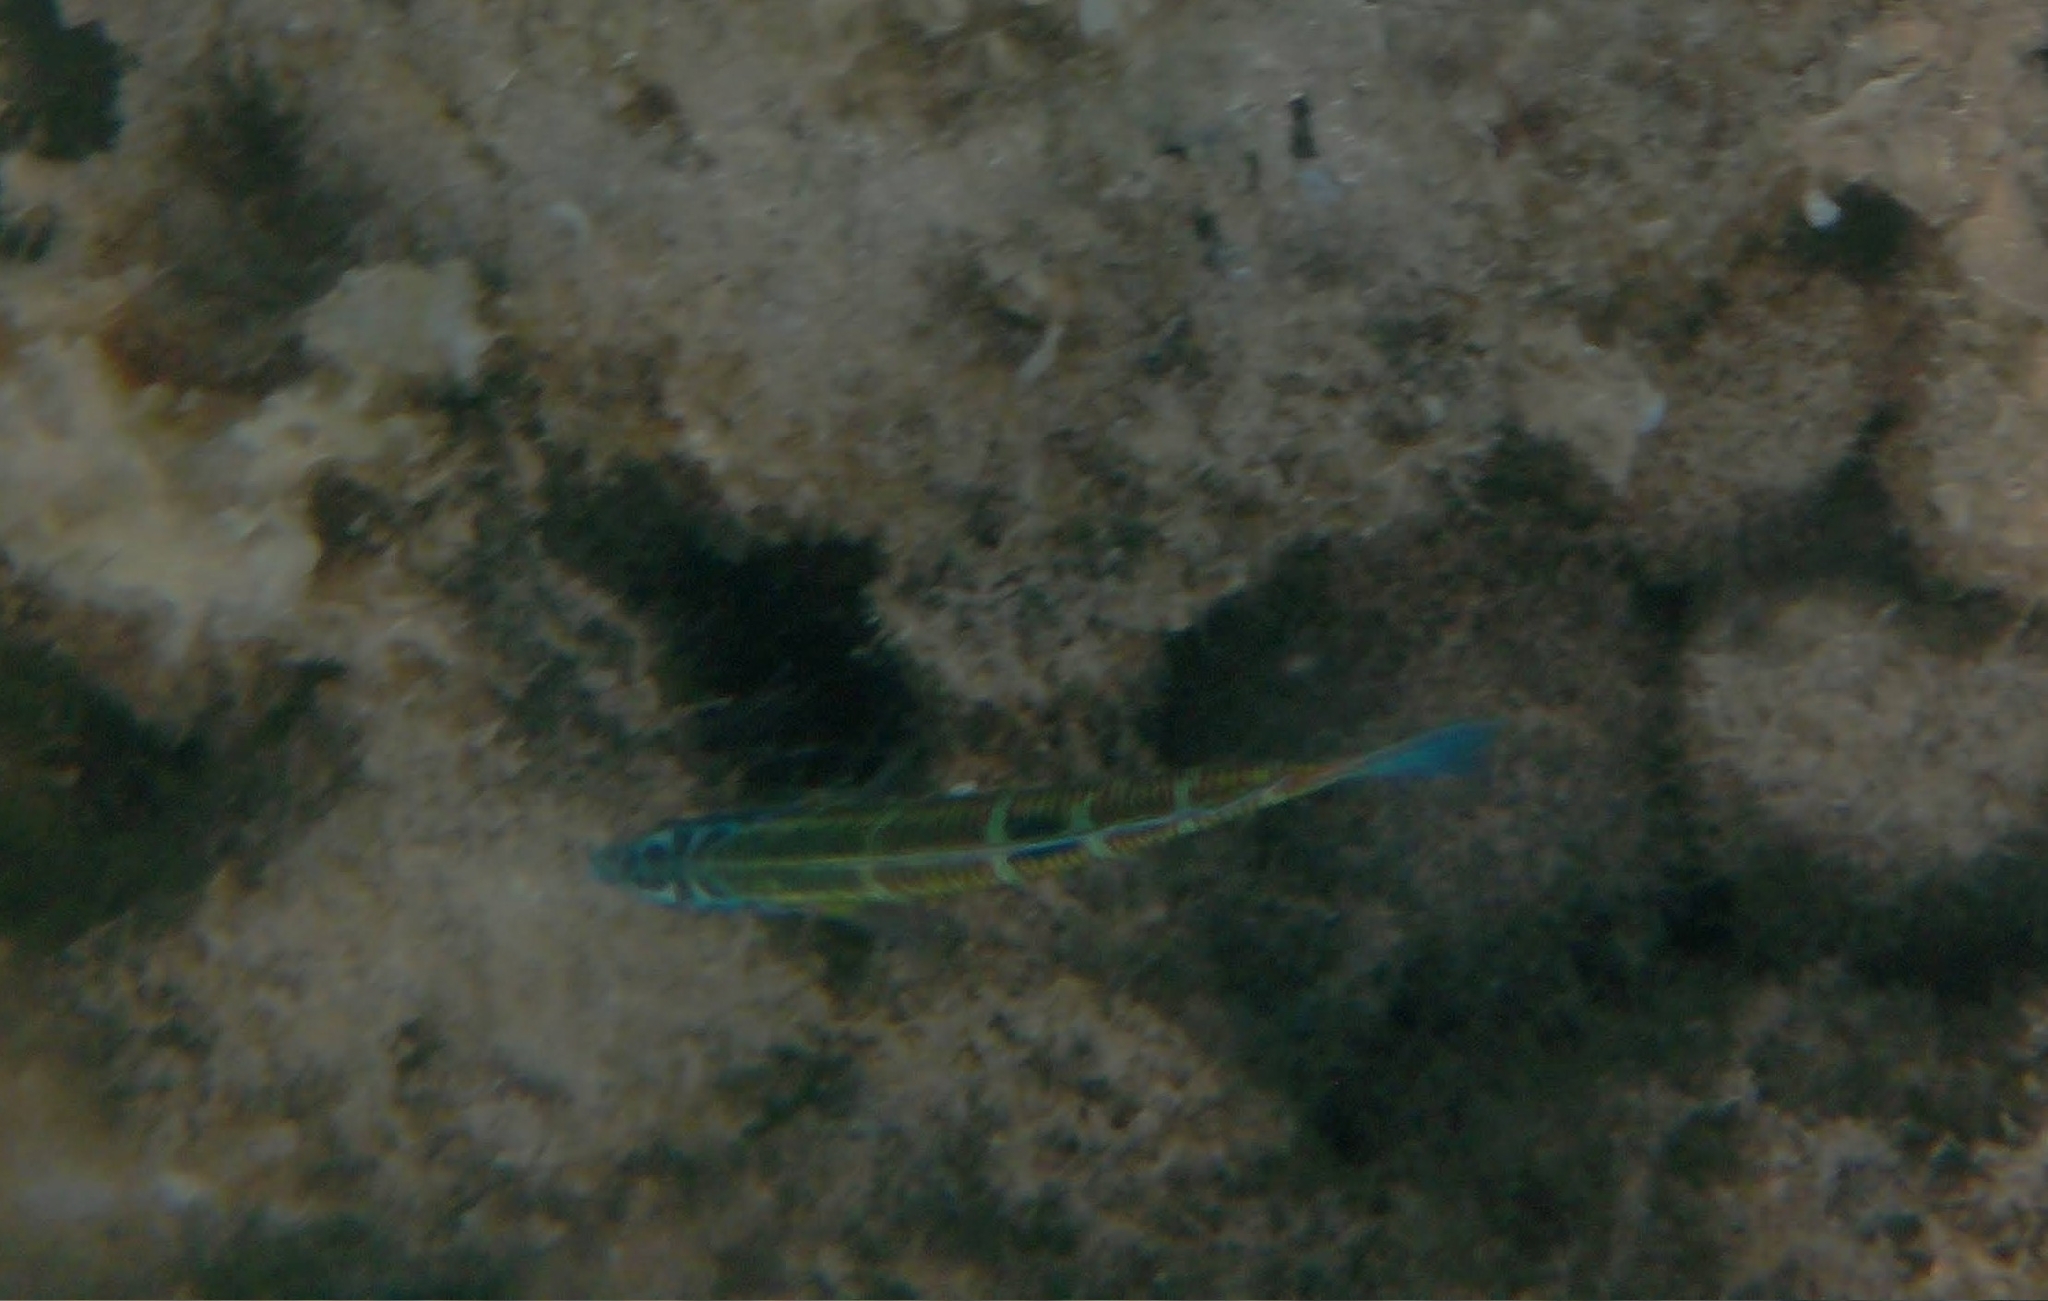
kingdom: Animalia
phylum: Chordata
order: Perciformes
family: Labridae
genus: Thalassoma
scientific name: Thalassoma pavo
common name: Ornate wrasse
